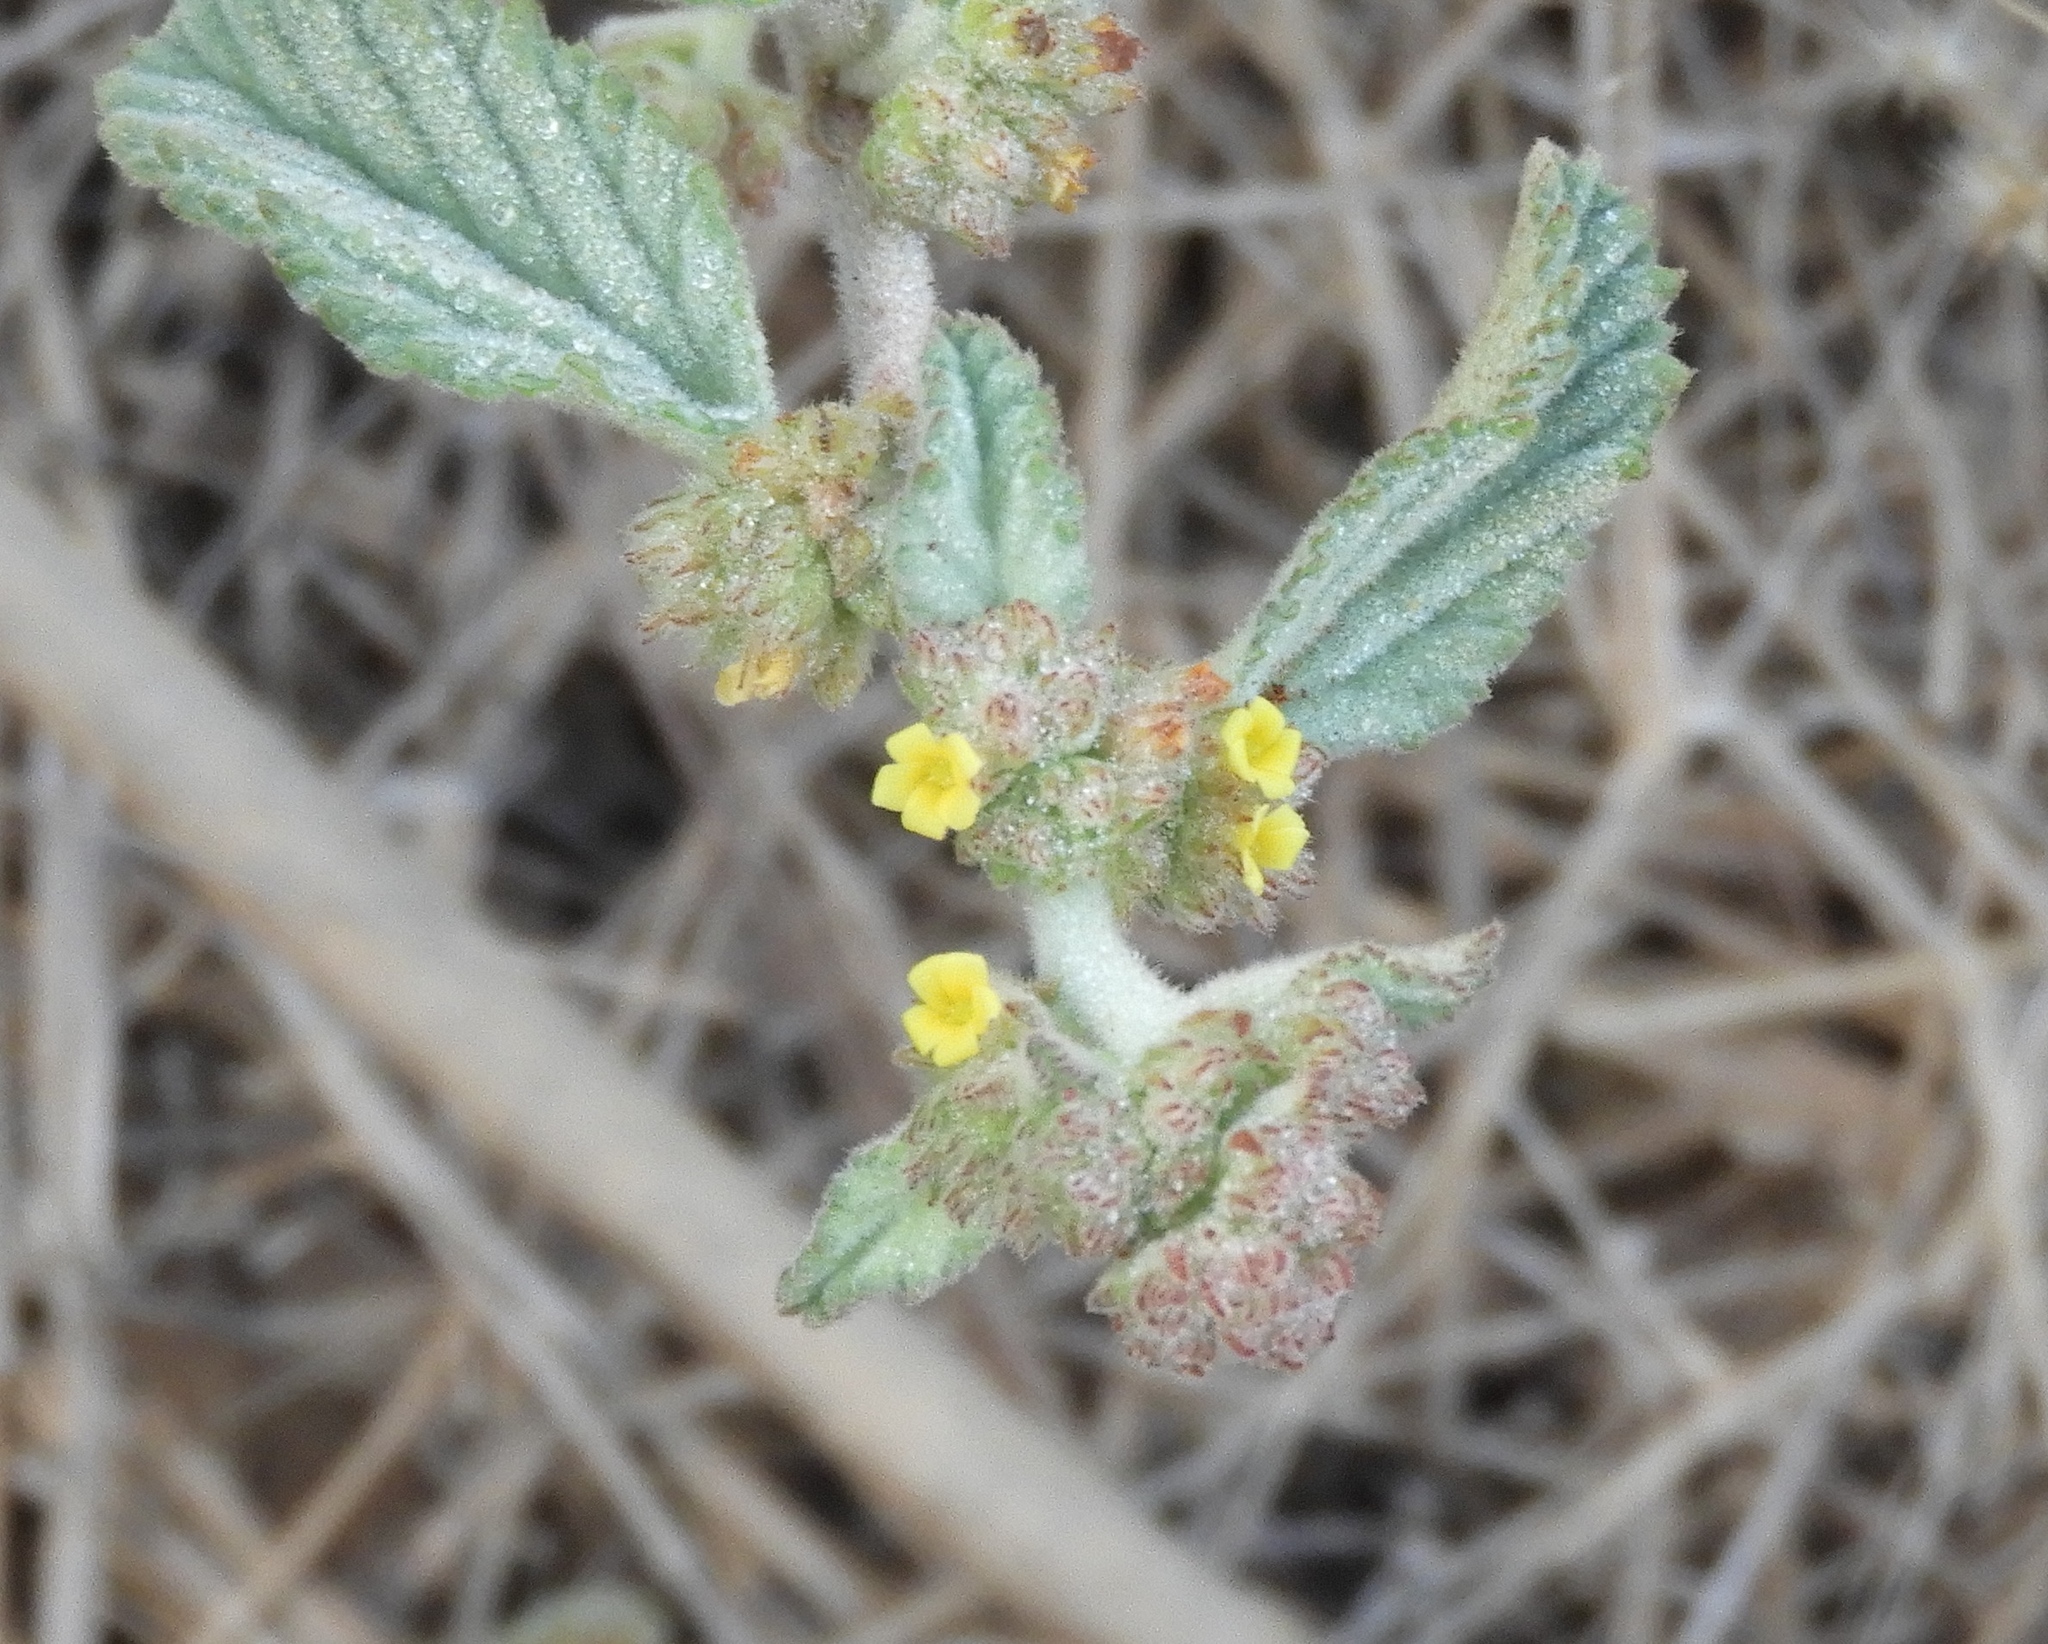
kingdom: Plantae
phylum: Tracheophyta
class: Magnoliopsida
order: Malvales
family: Malvaceae
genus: Waltheria
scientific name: Waltheria indica
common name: Leather-coat
